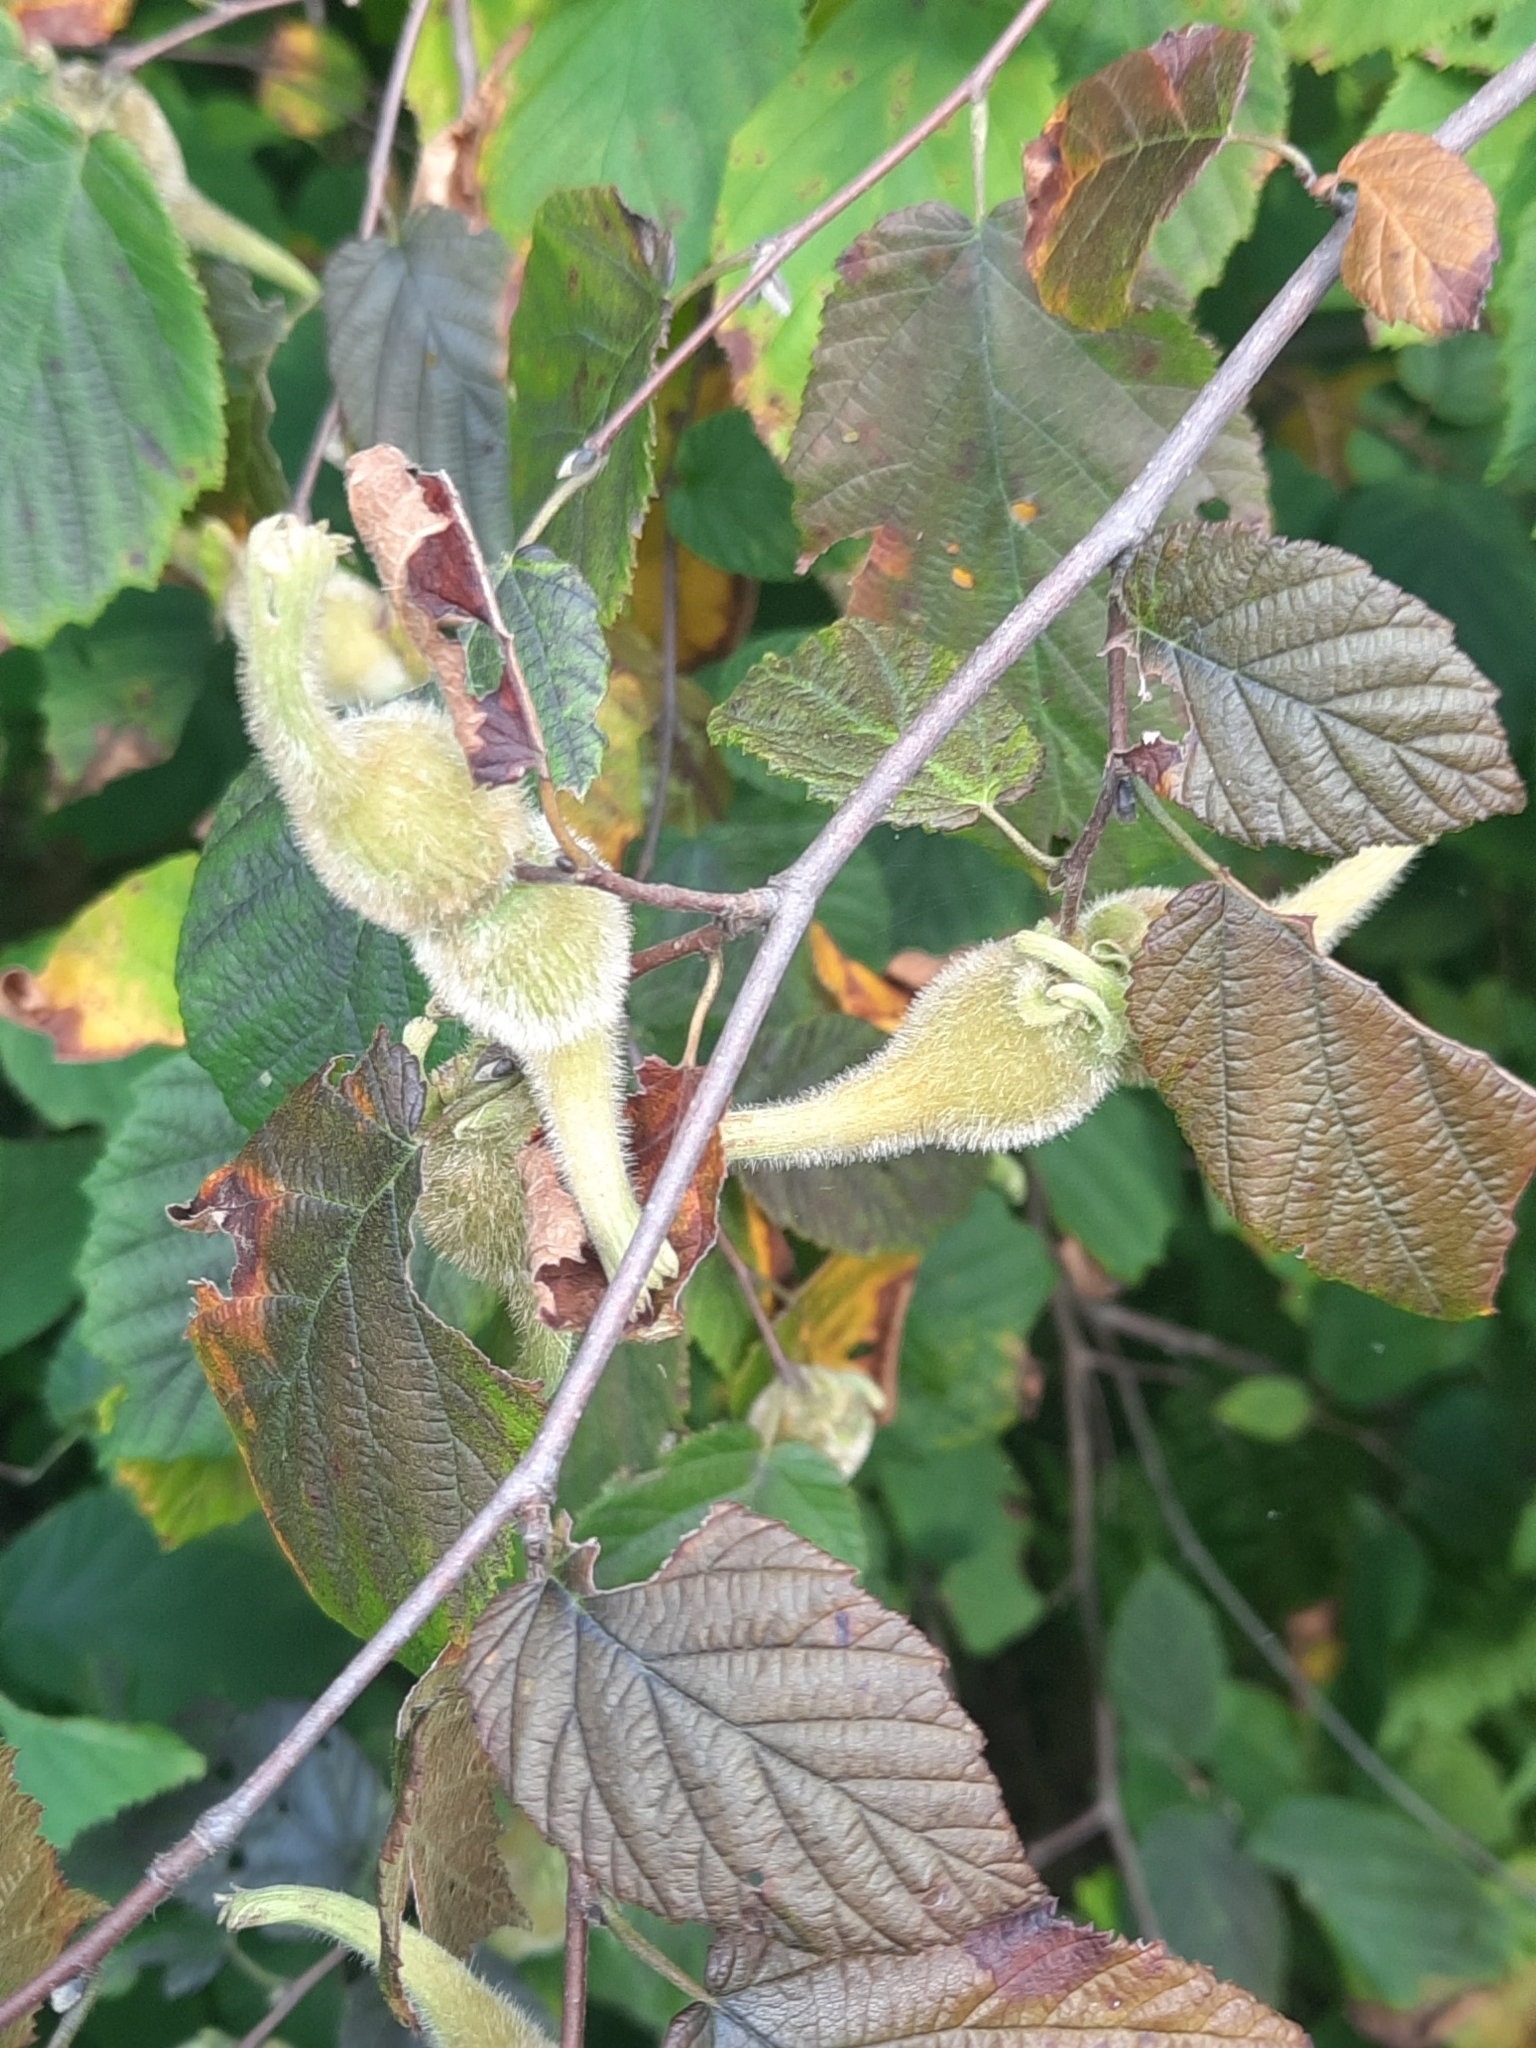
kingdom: Plantae
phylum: Tracheophyta
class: Magnoliopsida
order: Fagales
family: Betulaceae
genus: Corylus
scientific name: Corylus cornuta
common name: Beaked hazel
